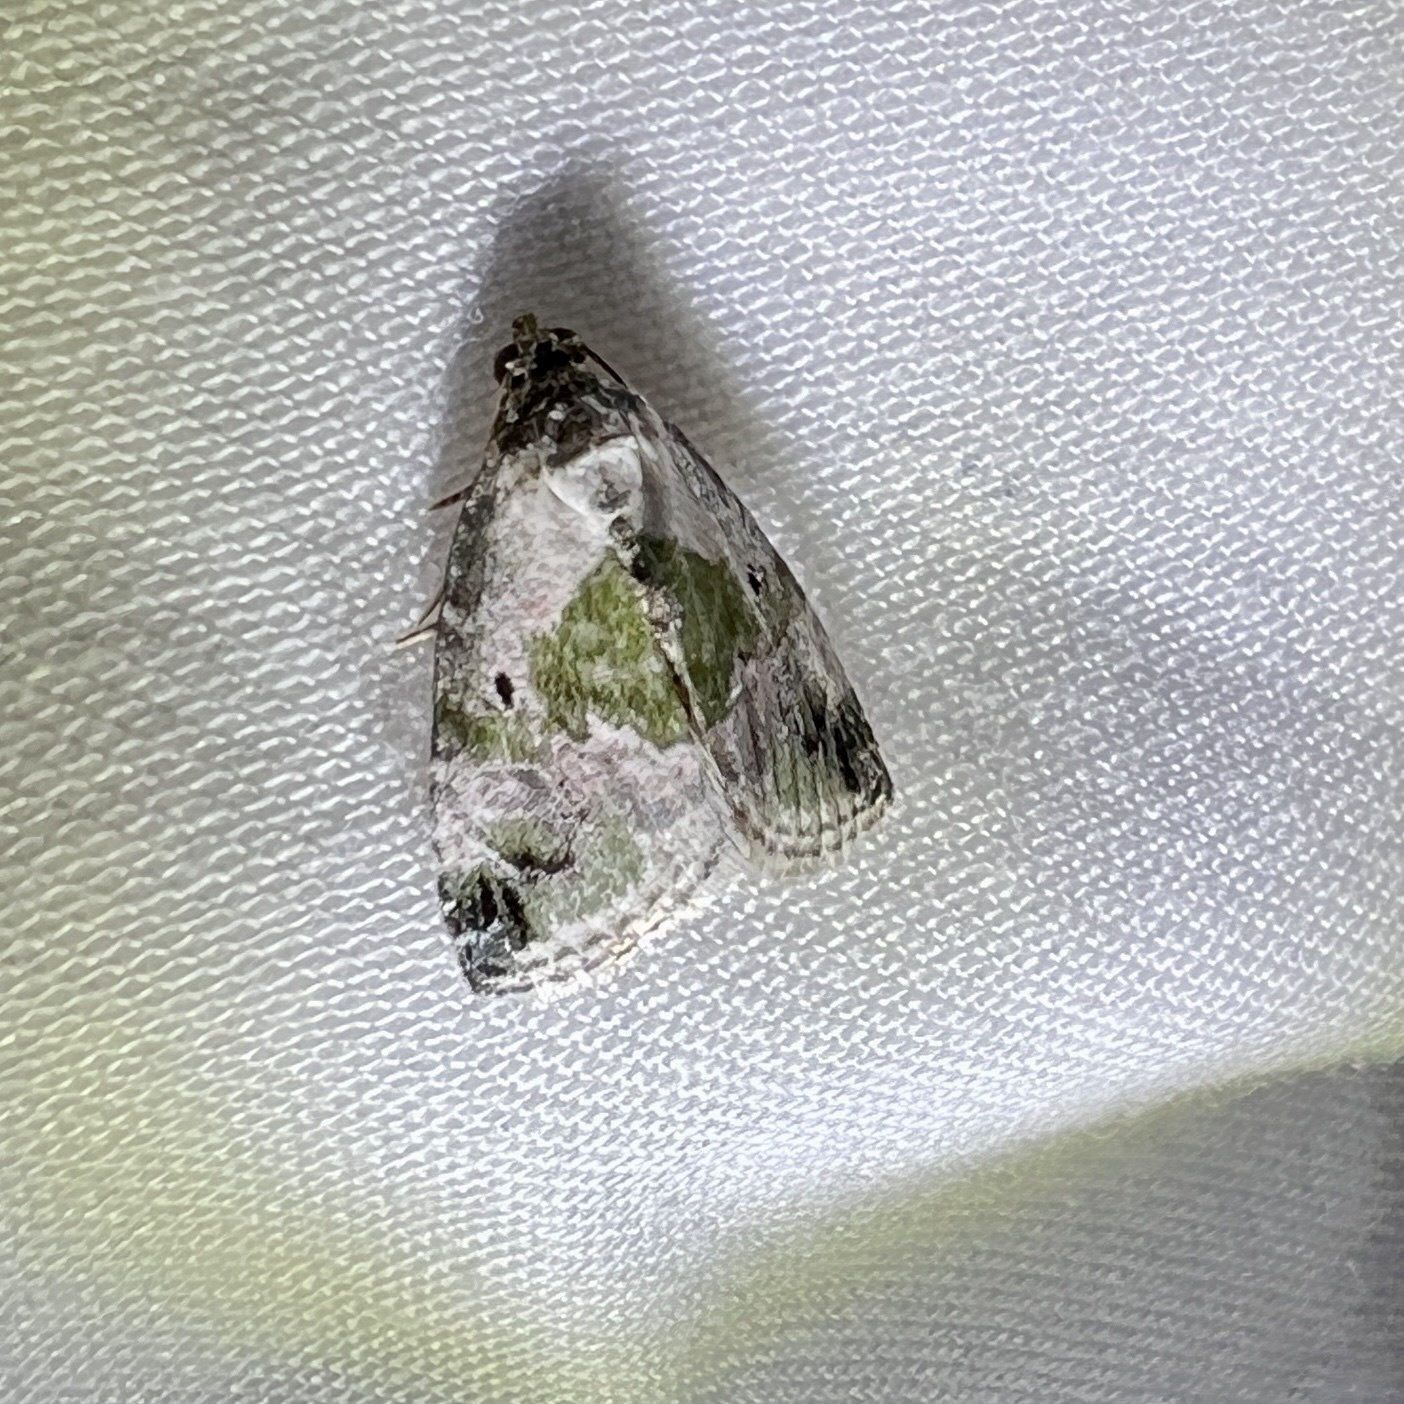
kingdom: Animalia
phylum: Arthropoda
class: Insecta
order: Lepidoptera
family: Noctuidae
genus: Maliattha
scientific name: Maliattha synochitis
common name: Black-dotted glyph
